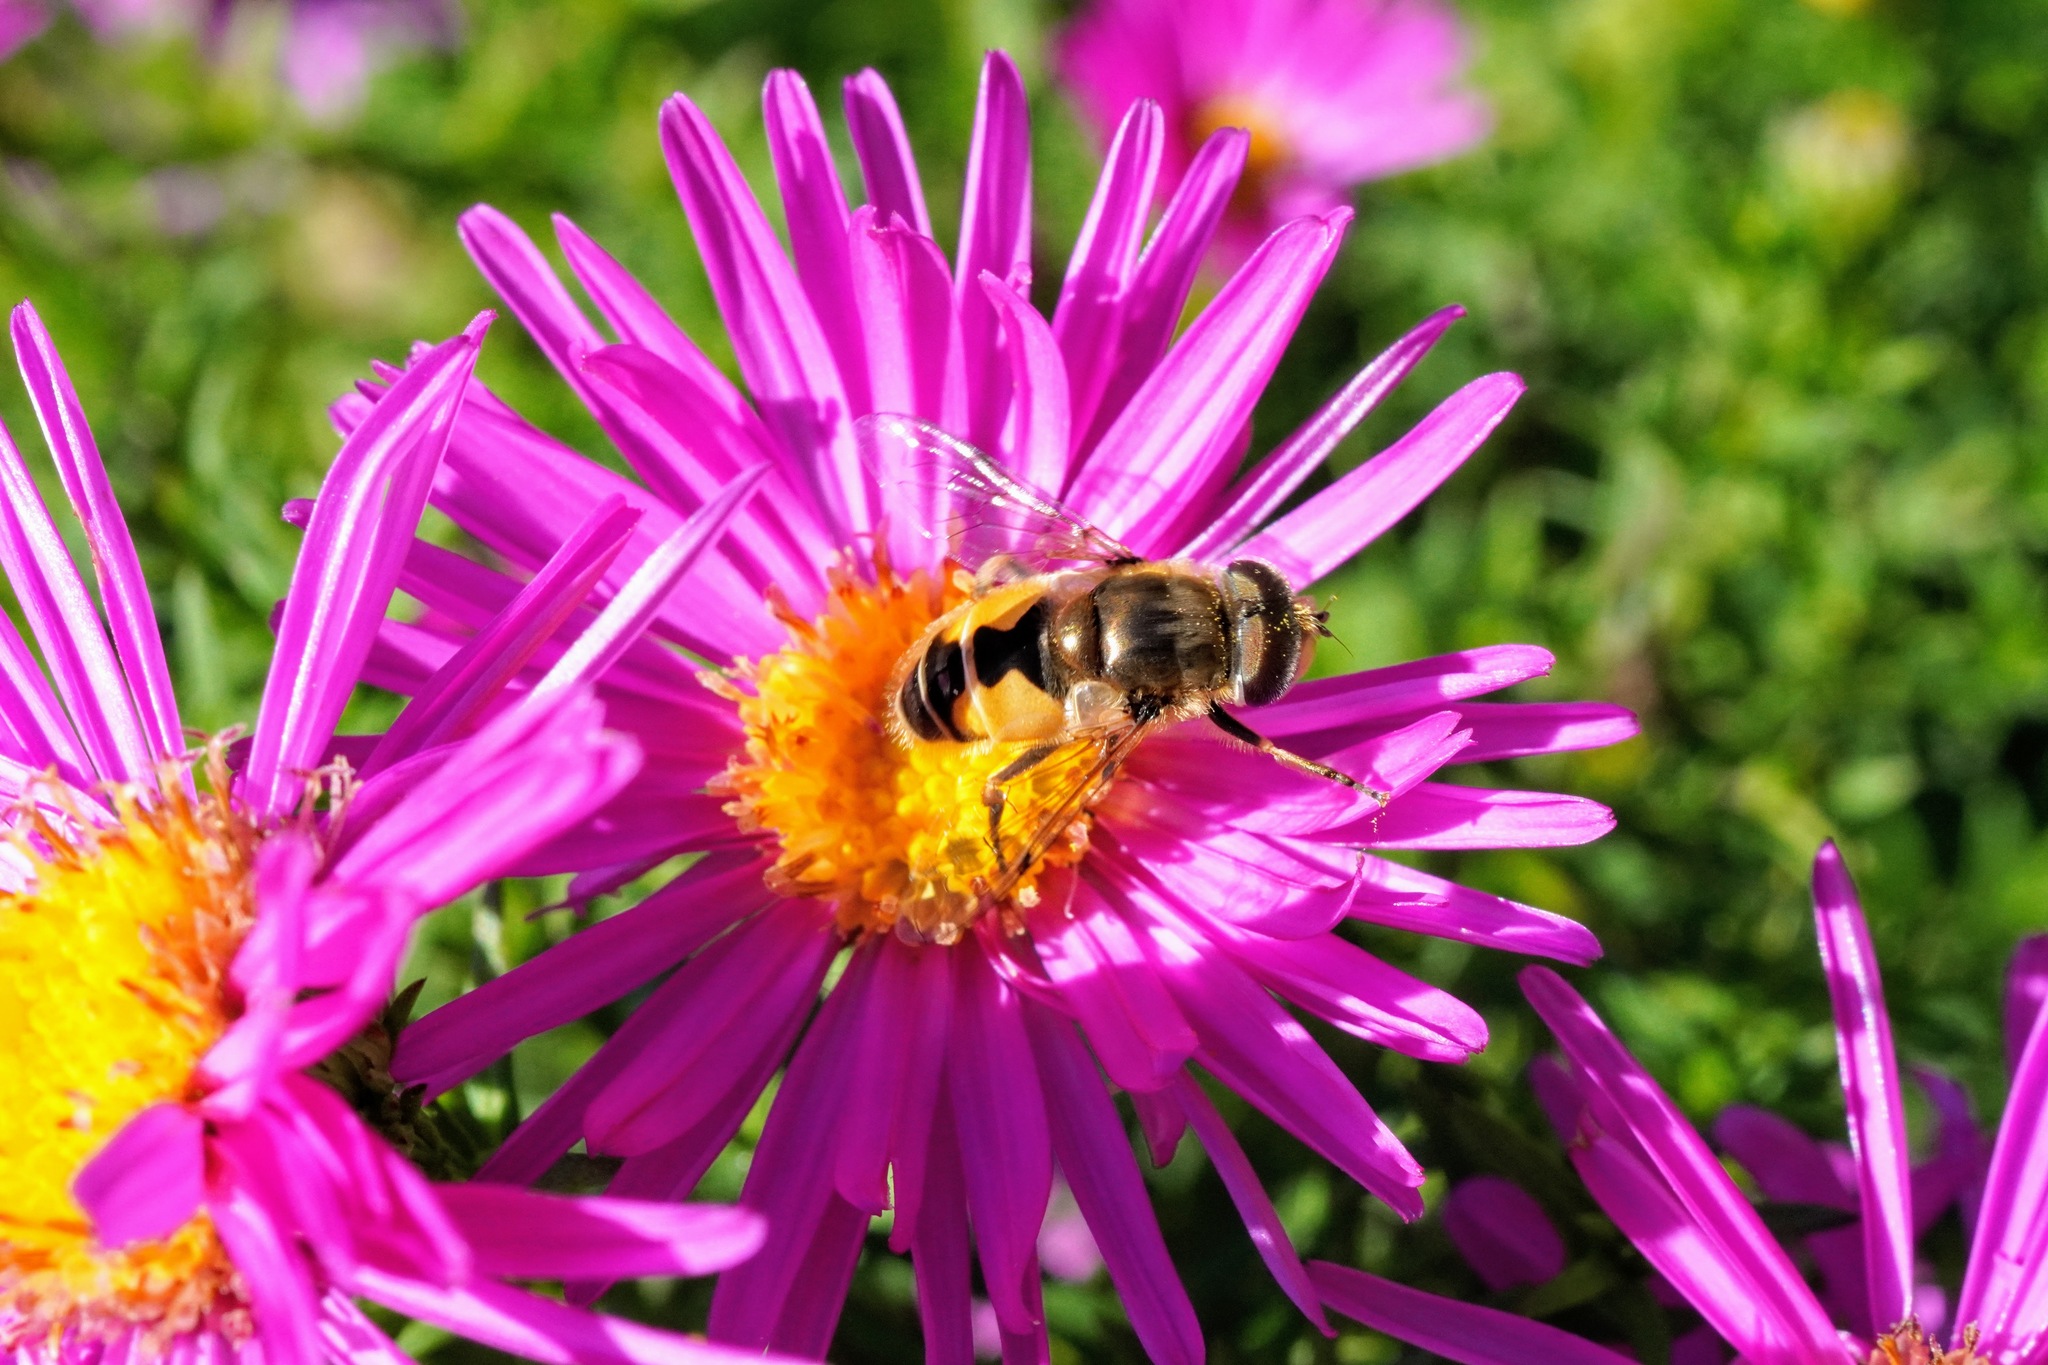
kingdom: Animalia
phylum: Arthropoda
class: Insecta
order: Diptera
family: Syrphidae
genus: Syrphus
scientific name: Syrphus opinator
